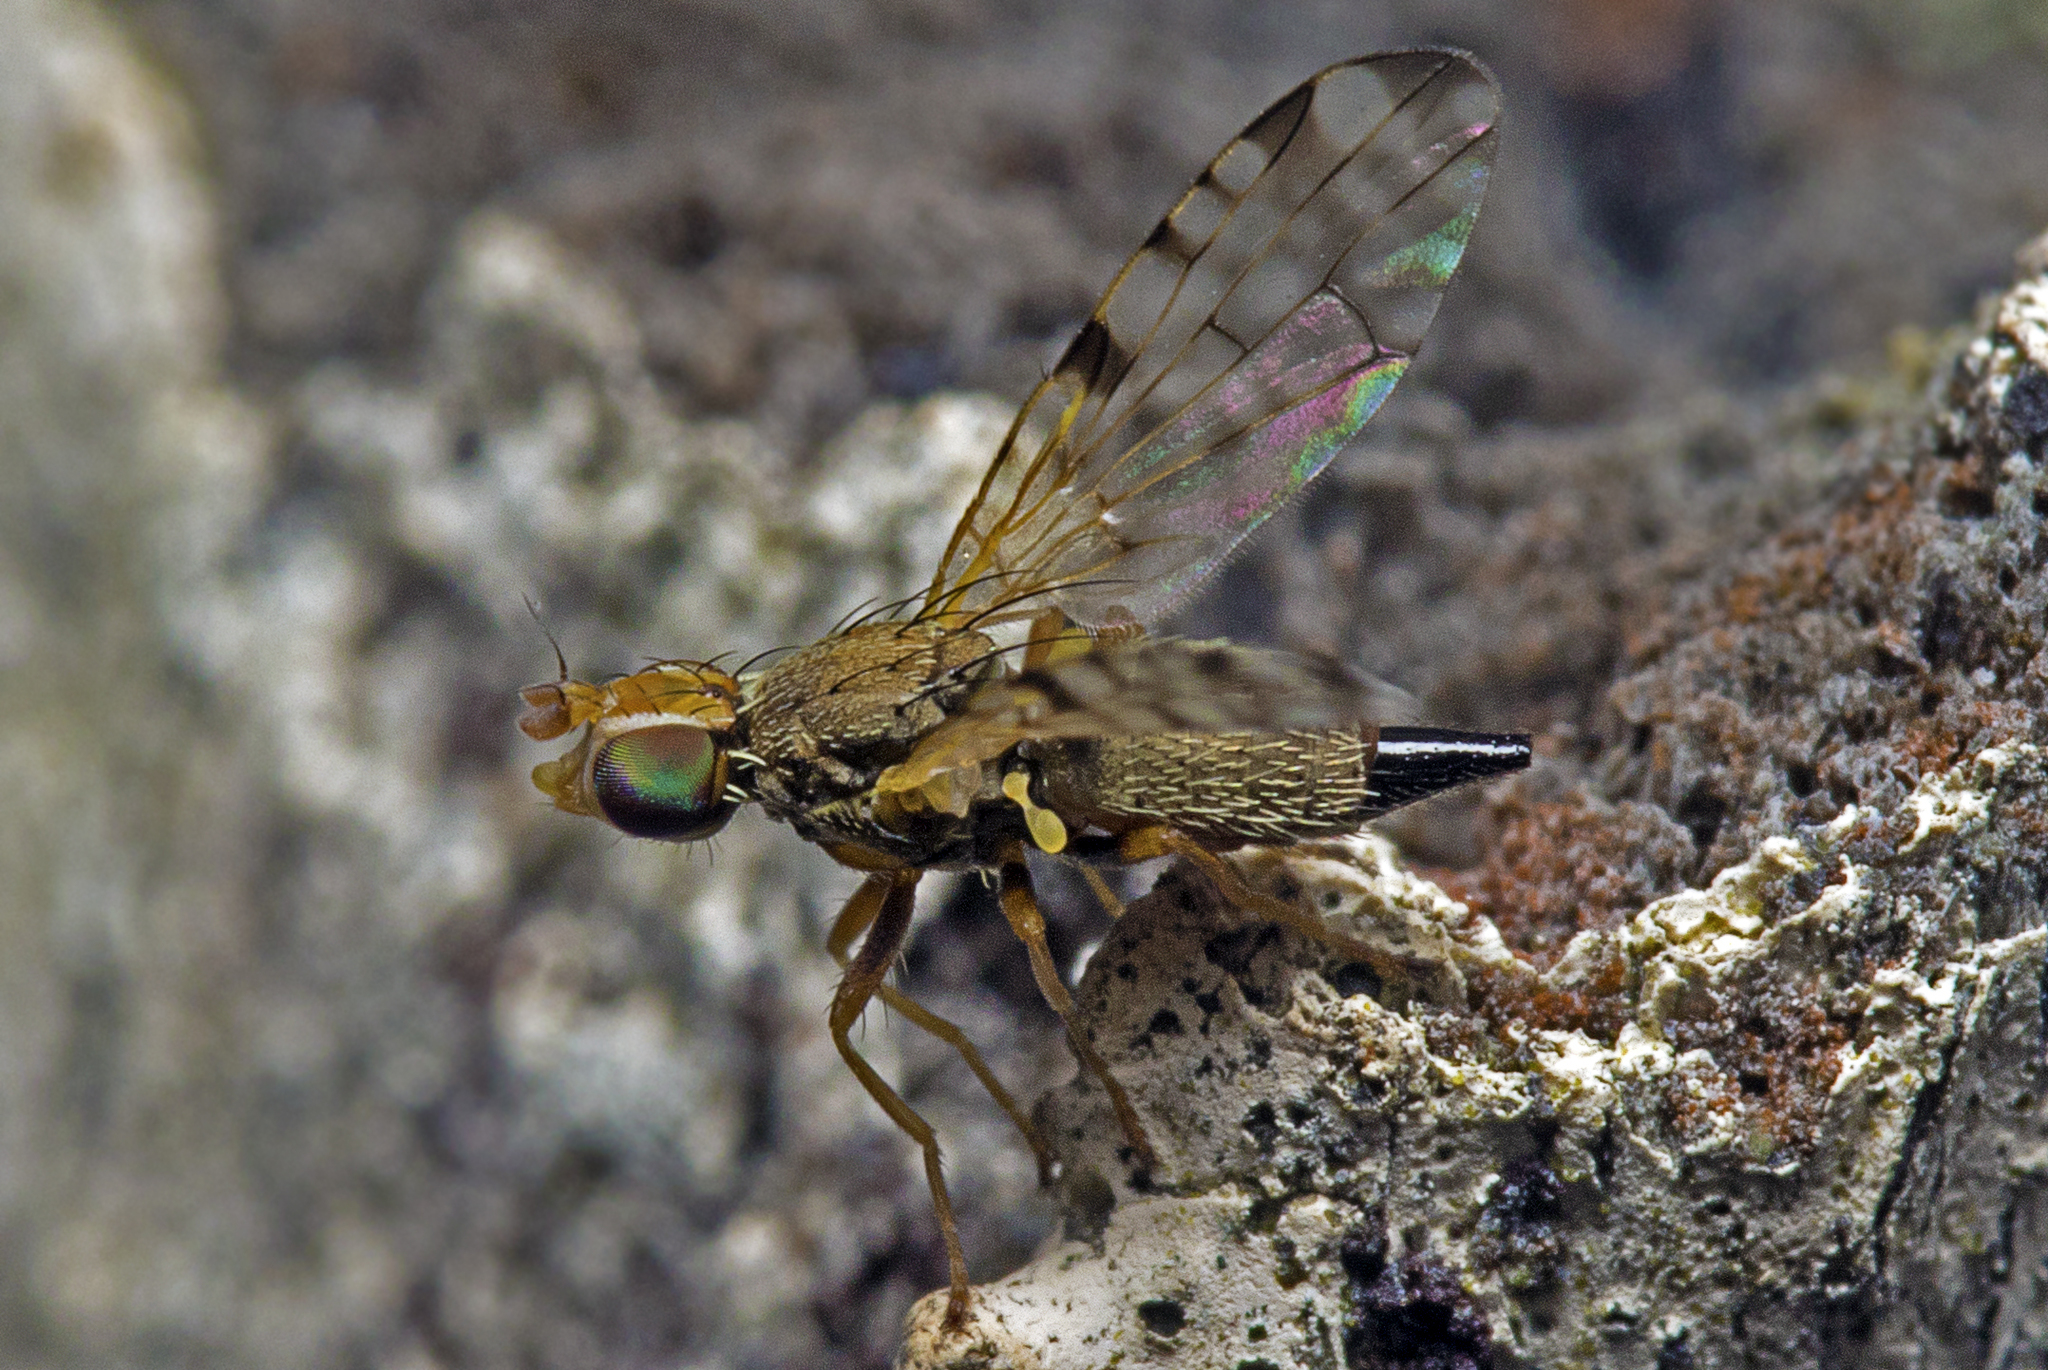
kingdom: Animalia
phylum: Arthropoda
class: Insecta
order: Diptera
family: Tephritidae
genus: Dioxyna
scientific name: Dioxyna sororcula
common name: Fruit fly
